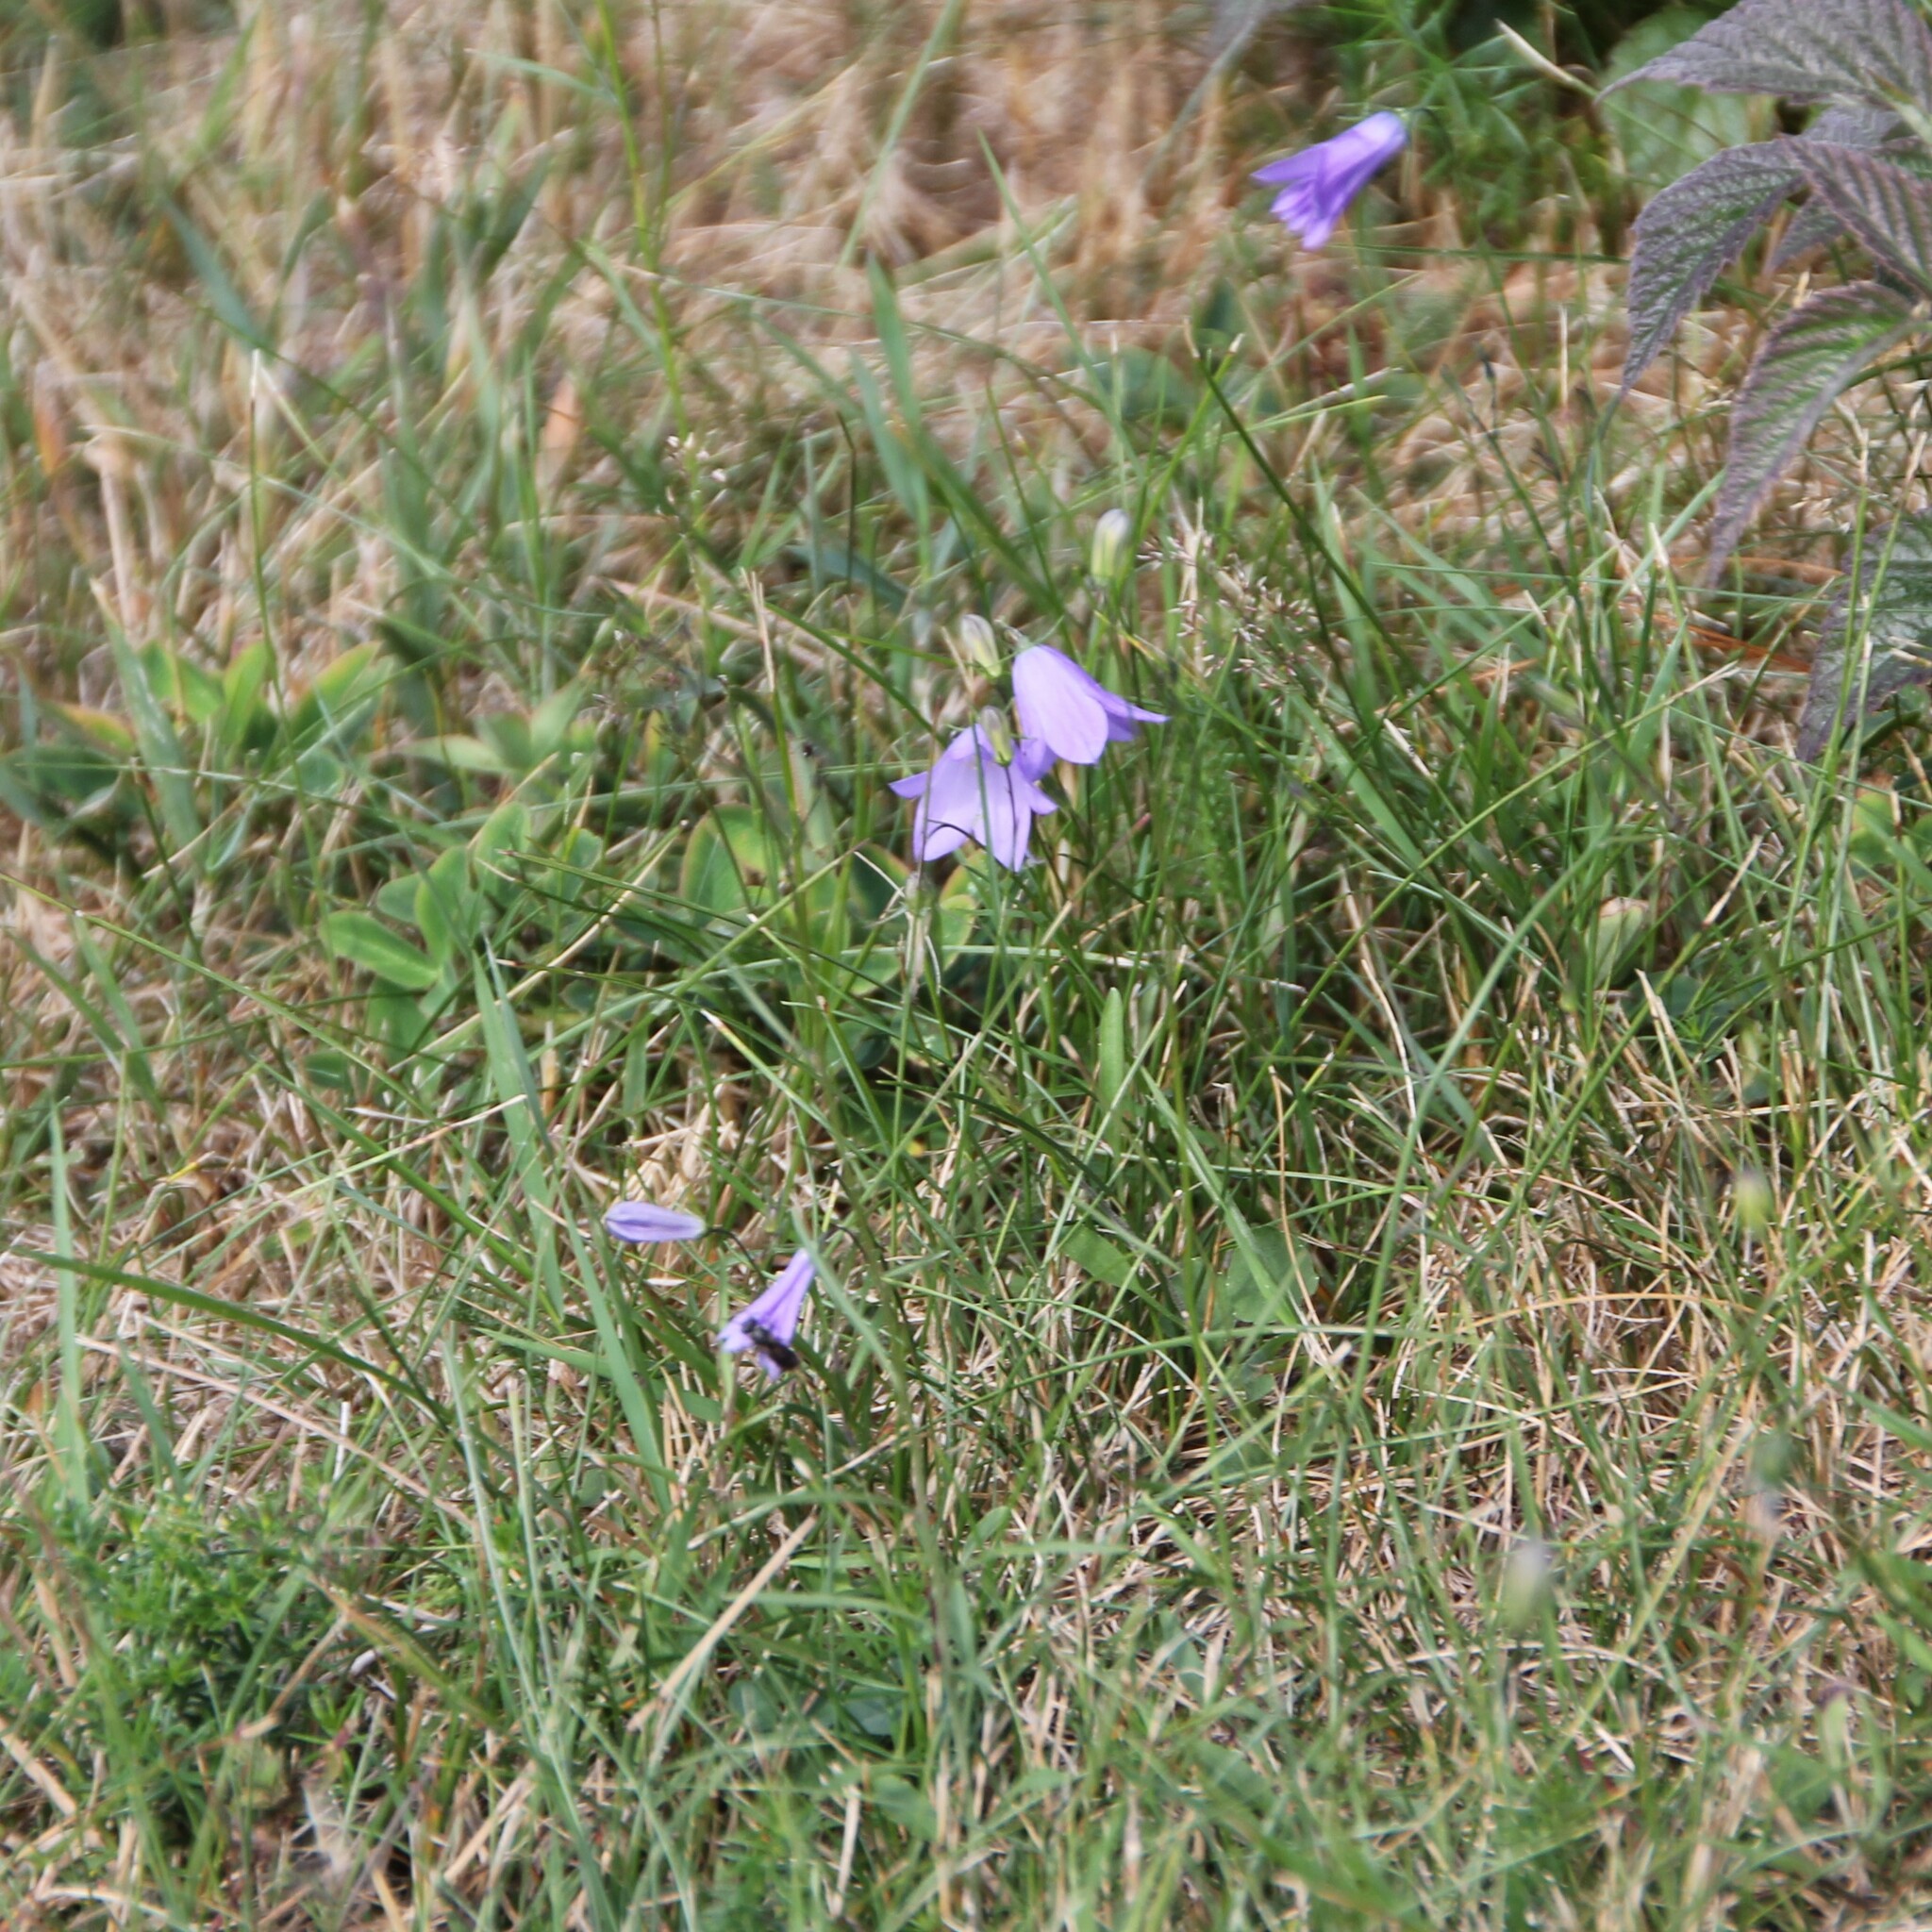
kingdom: Plantae
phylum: Tracheophyta
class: Magnoliopsida
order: Asterales
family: Campanulaceae
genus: Campanula
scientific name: Campanula rotundifolia
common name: Harebell
